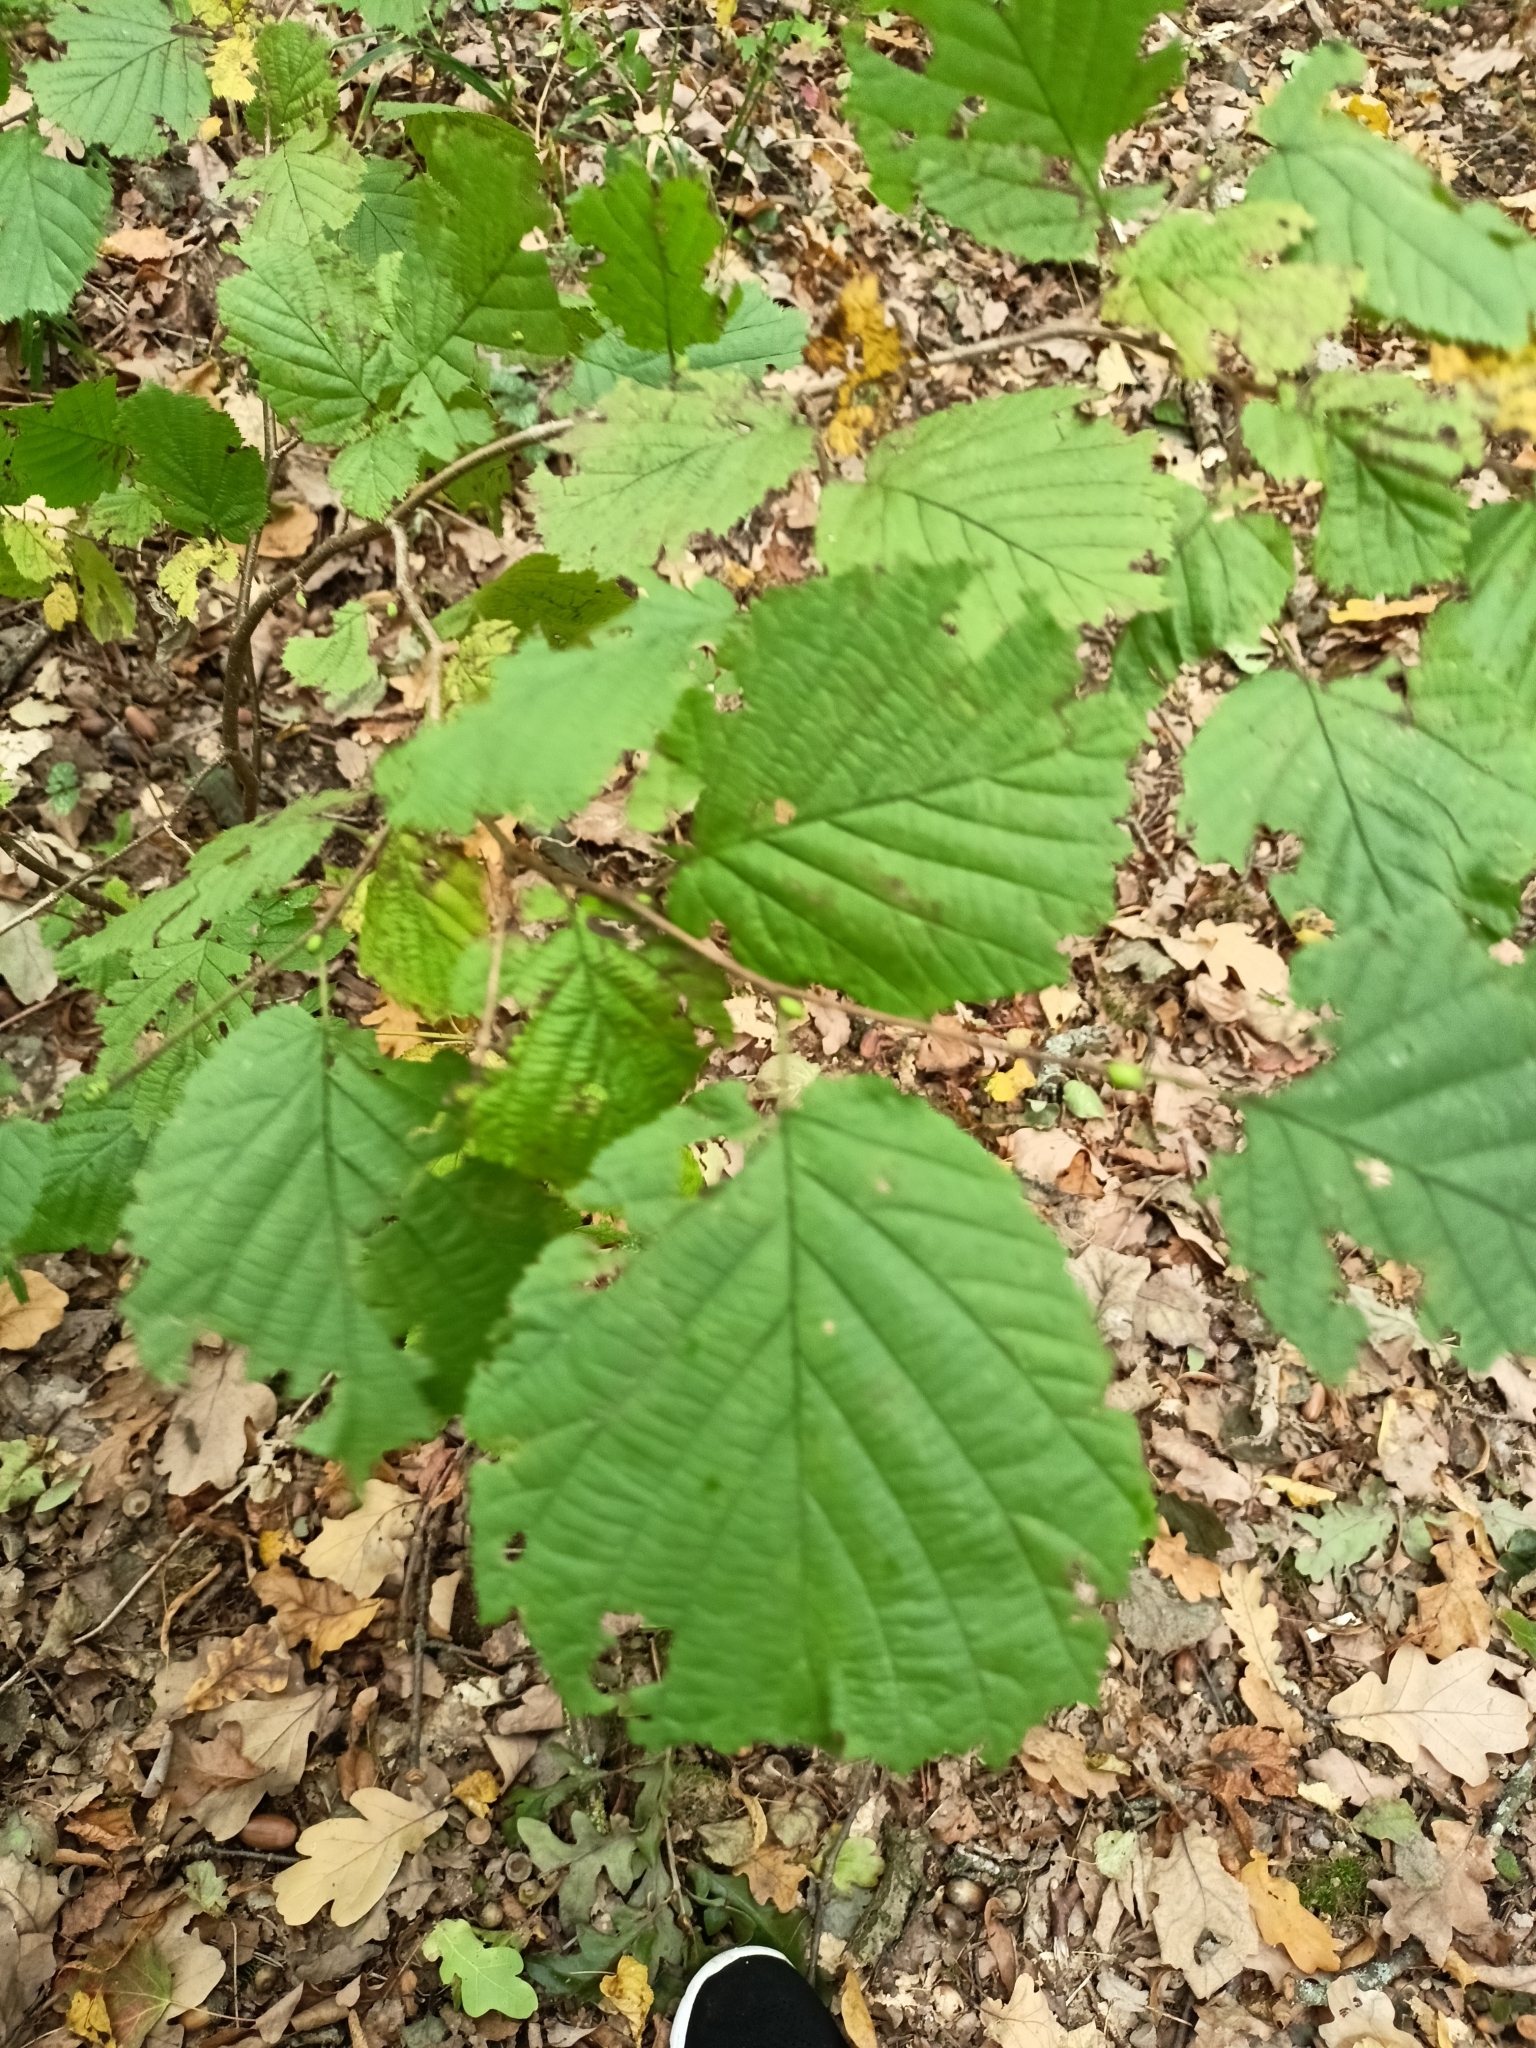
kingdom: Plantae
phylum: Tracheophyta
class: Magnoliopsida
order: Fagales
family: Betulaceae
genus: Corylus
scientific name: Corylus avellana
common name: European hazel
